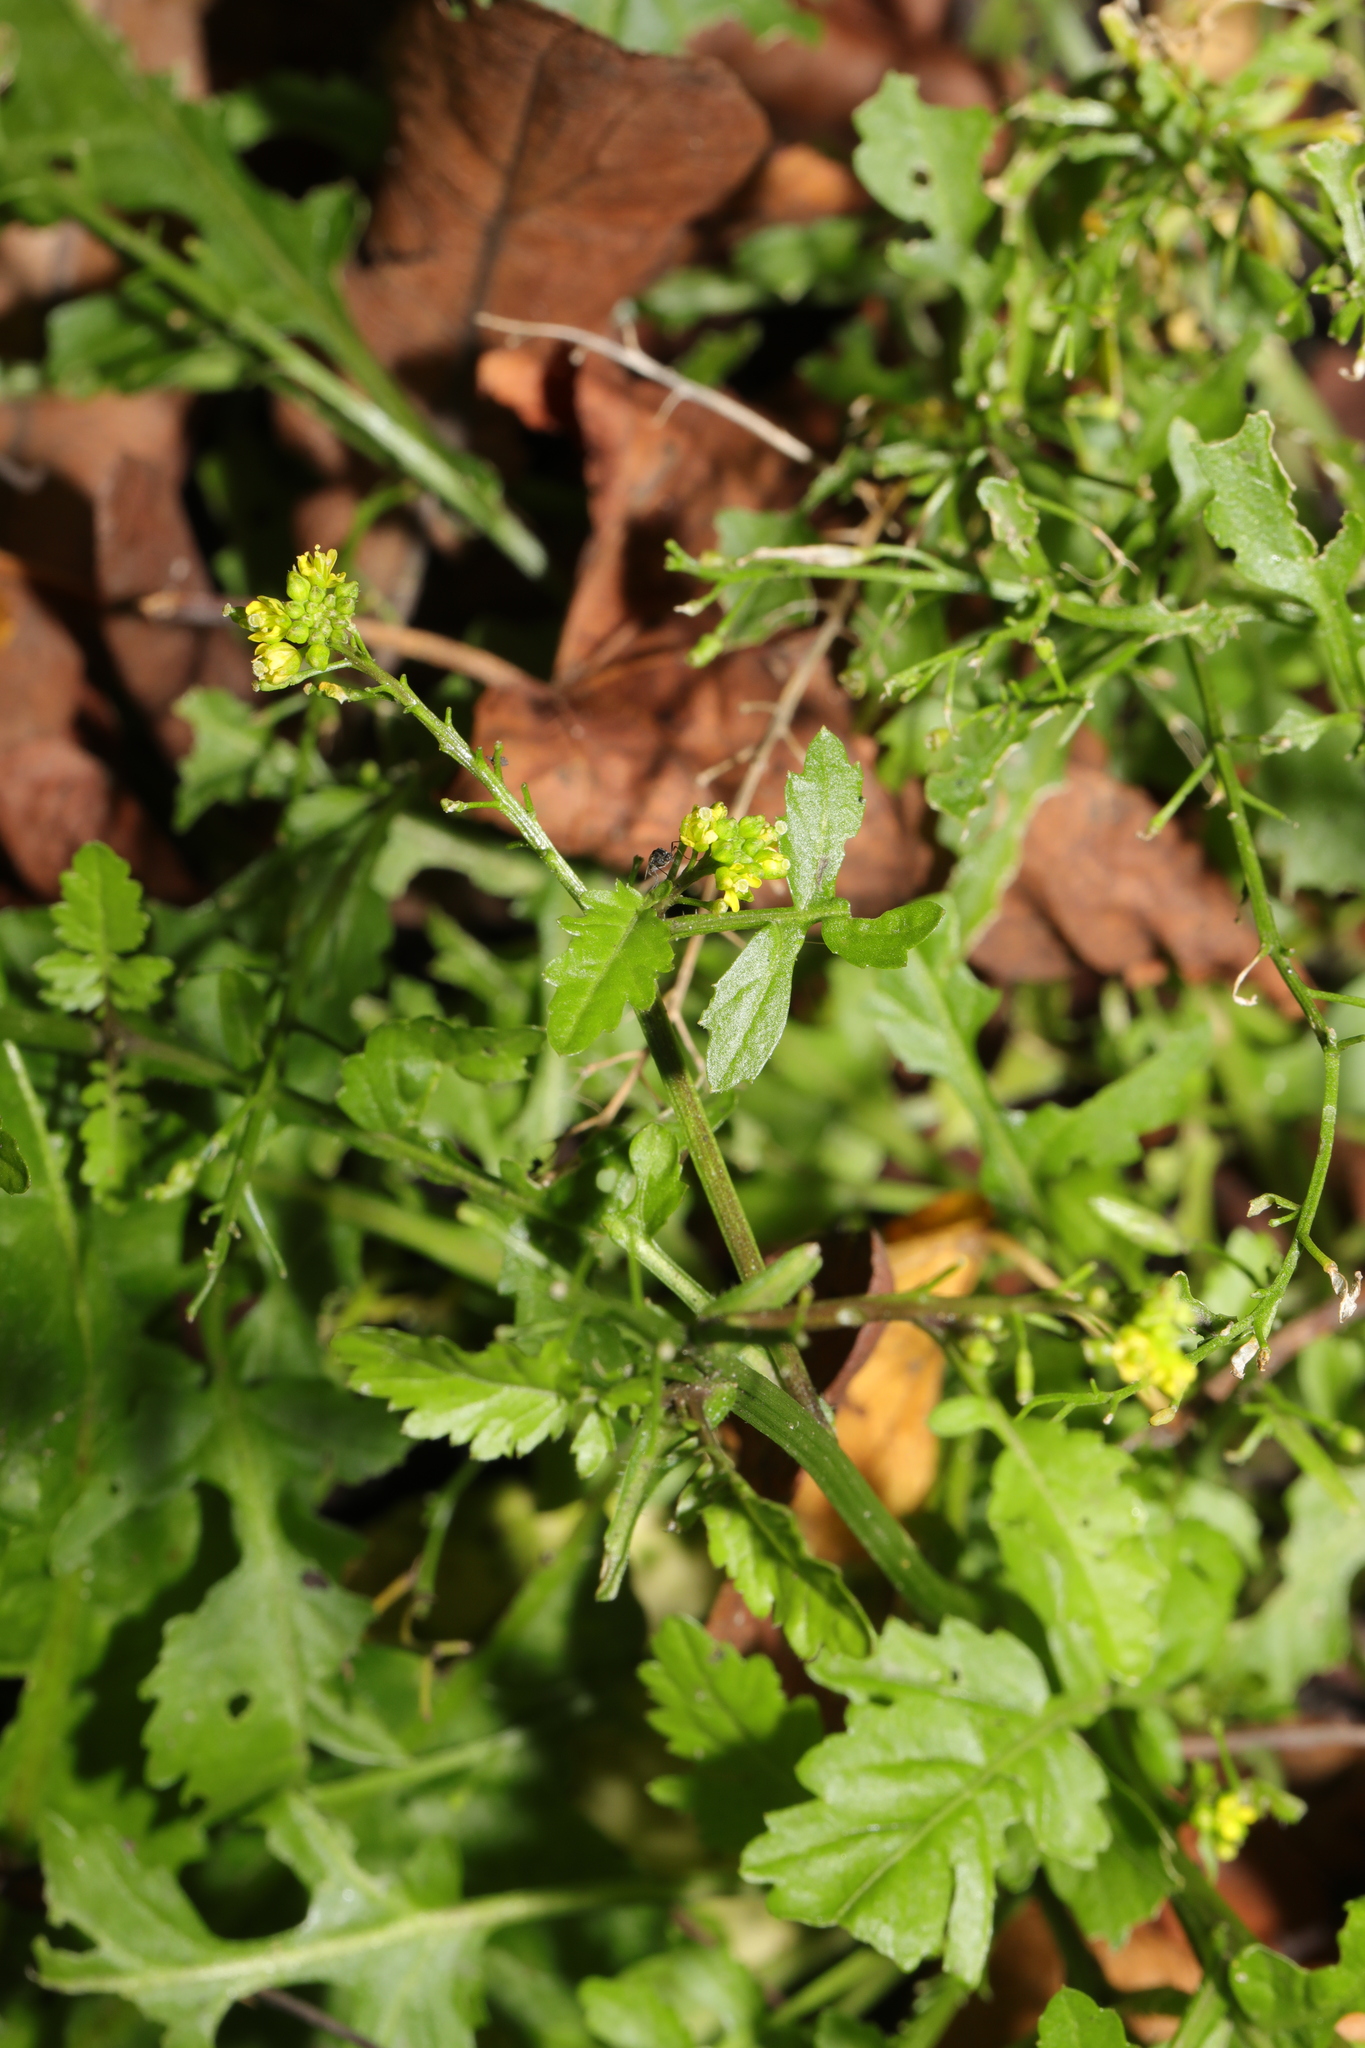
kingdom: Plantae
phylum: Tracheophyta
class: Magnoliopsida
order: Brassicales
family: Brassicaceae
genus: Sisymbrium
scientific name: Sisymbrium officinale
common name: Hedge mustard
